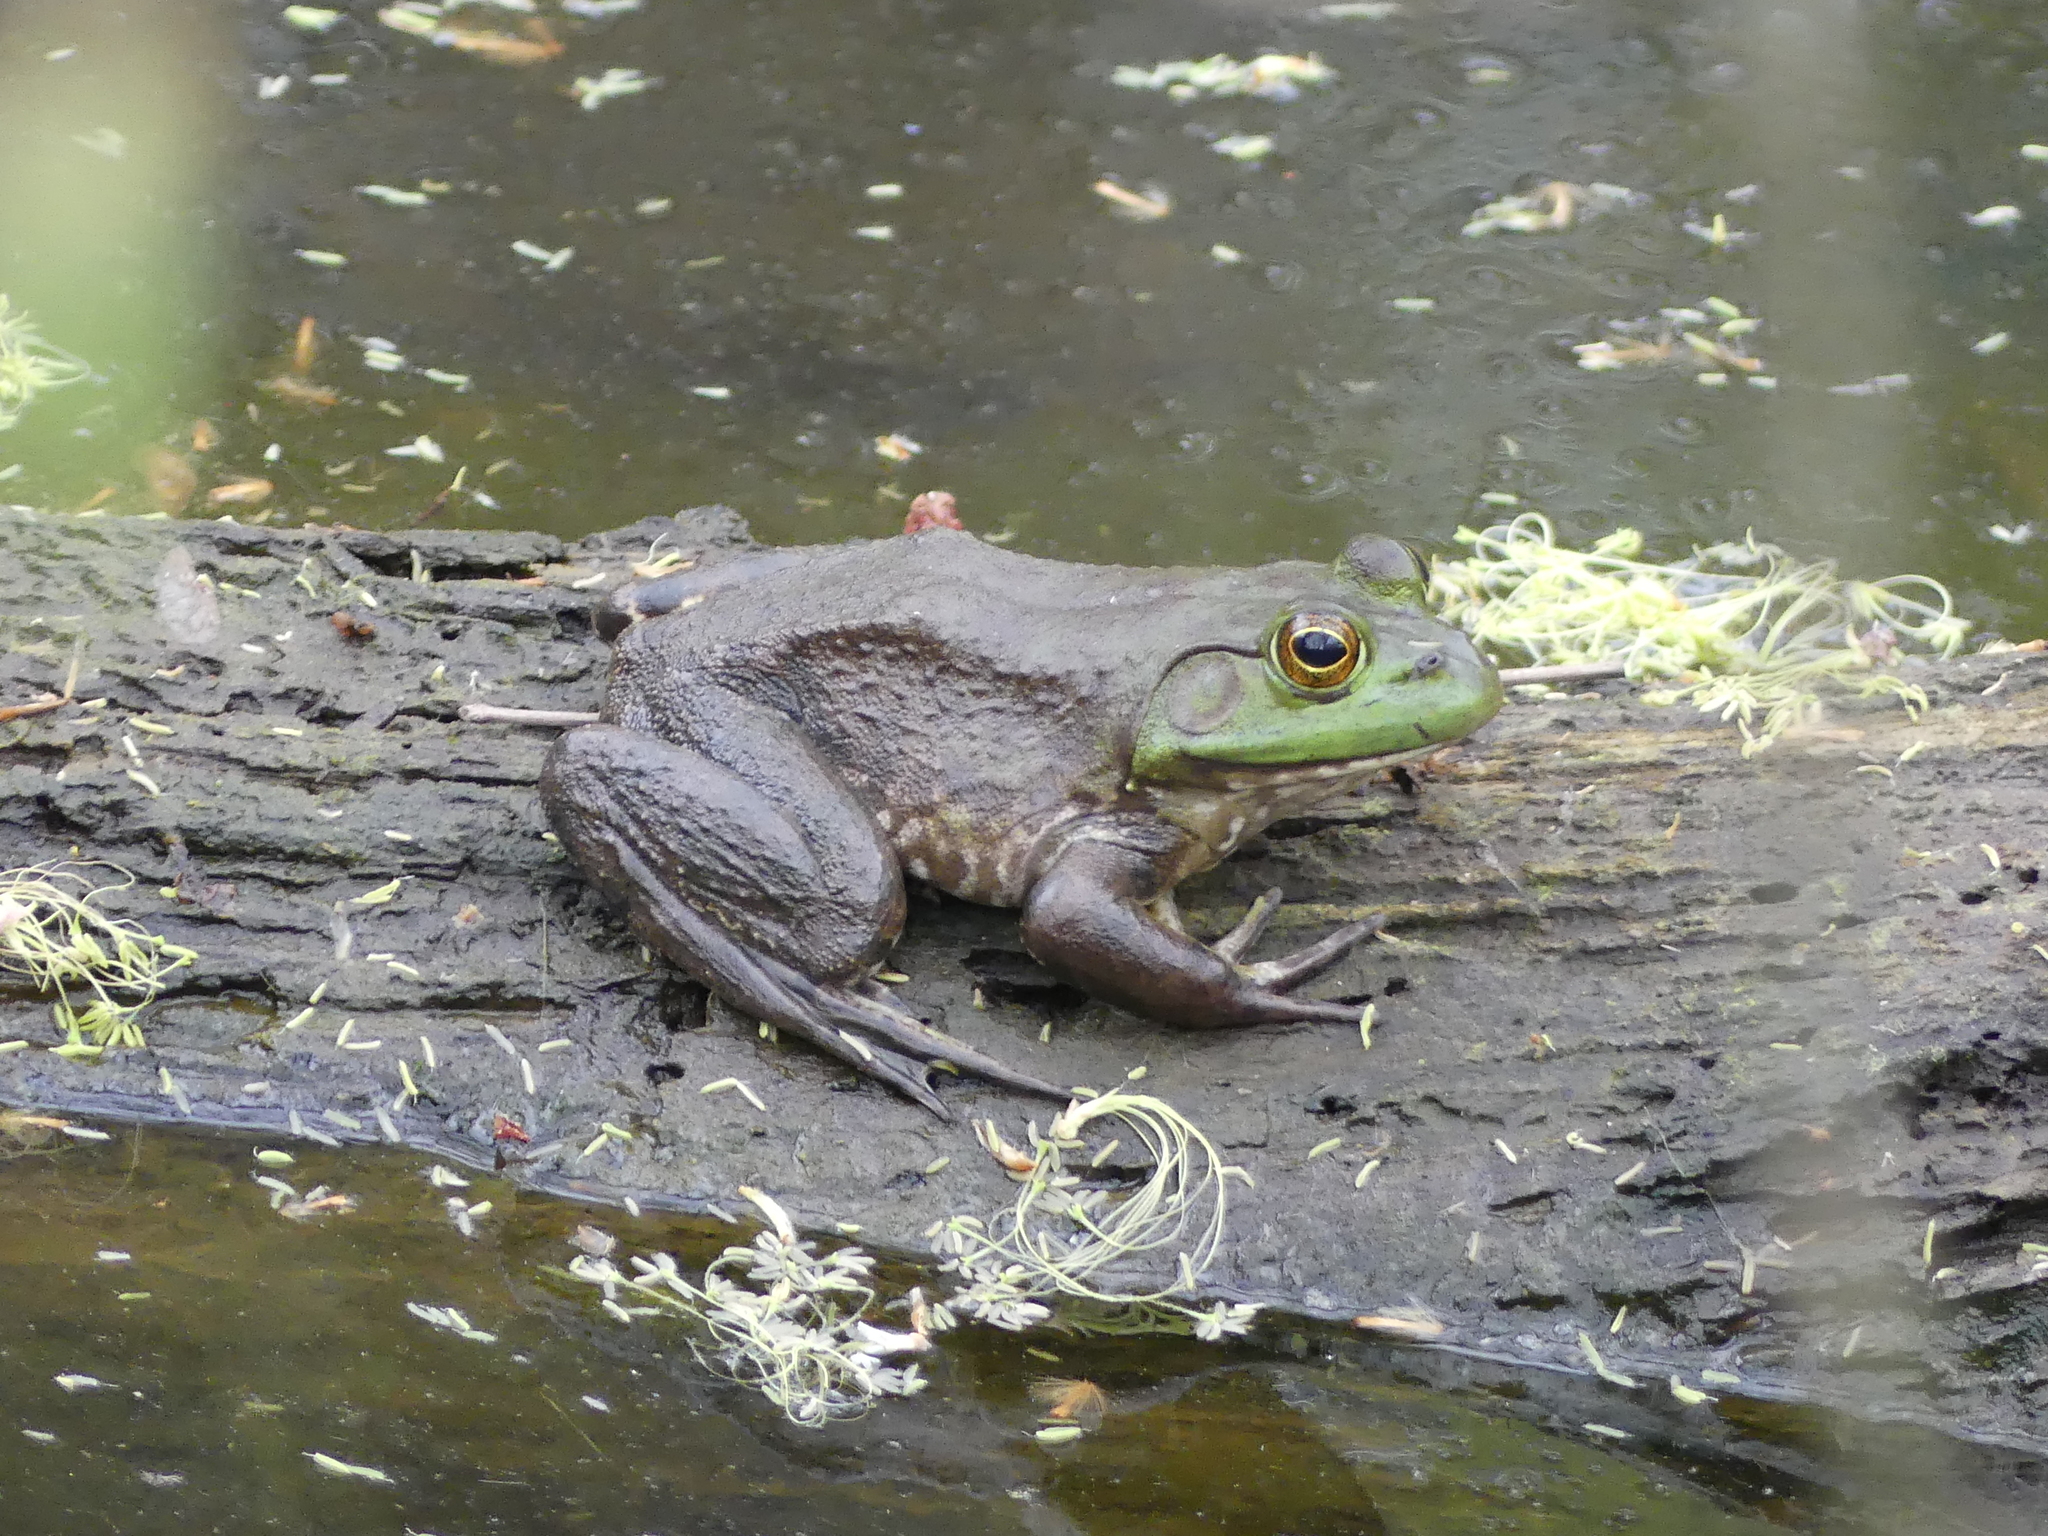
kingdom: Animalia
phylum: Chordata
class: Amphibia
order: Anura
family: Ranidae
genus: Lithobates
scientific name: Lithobates catesbeianus
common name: American bullfrog
